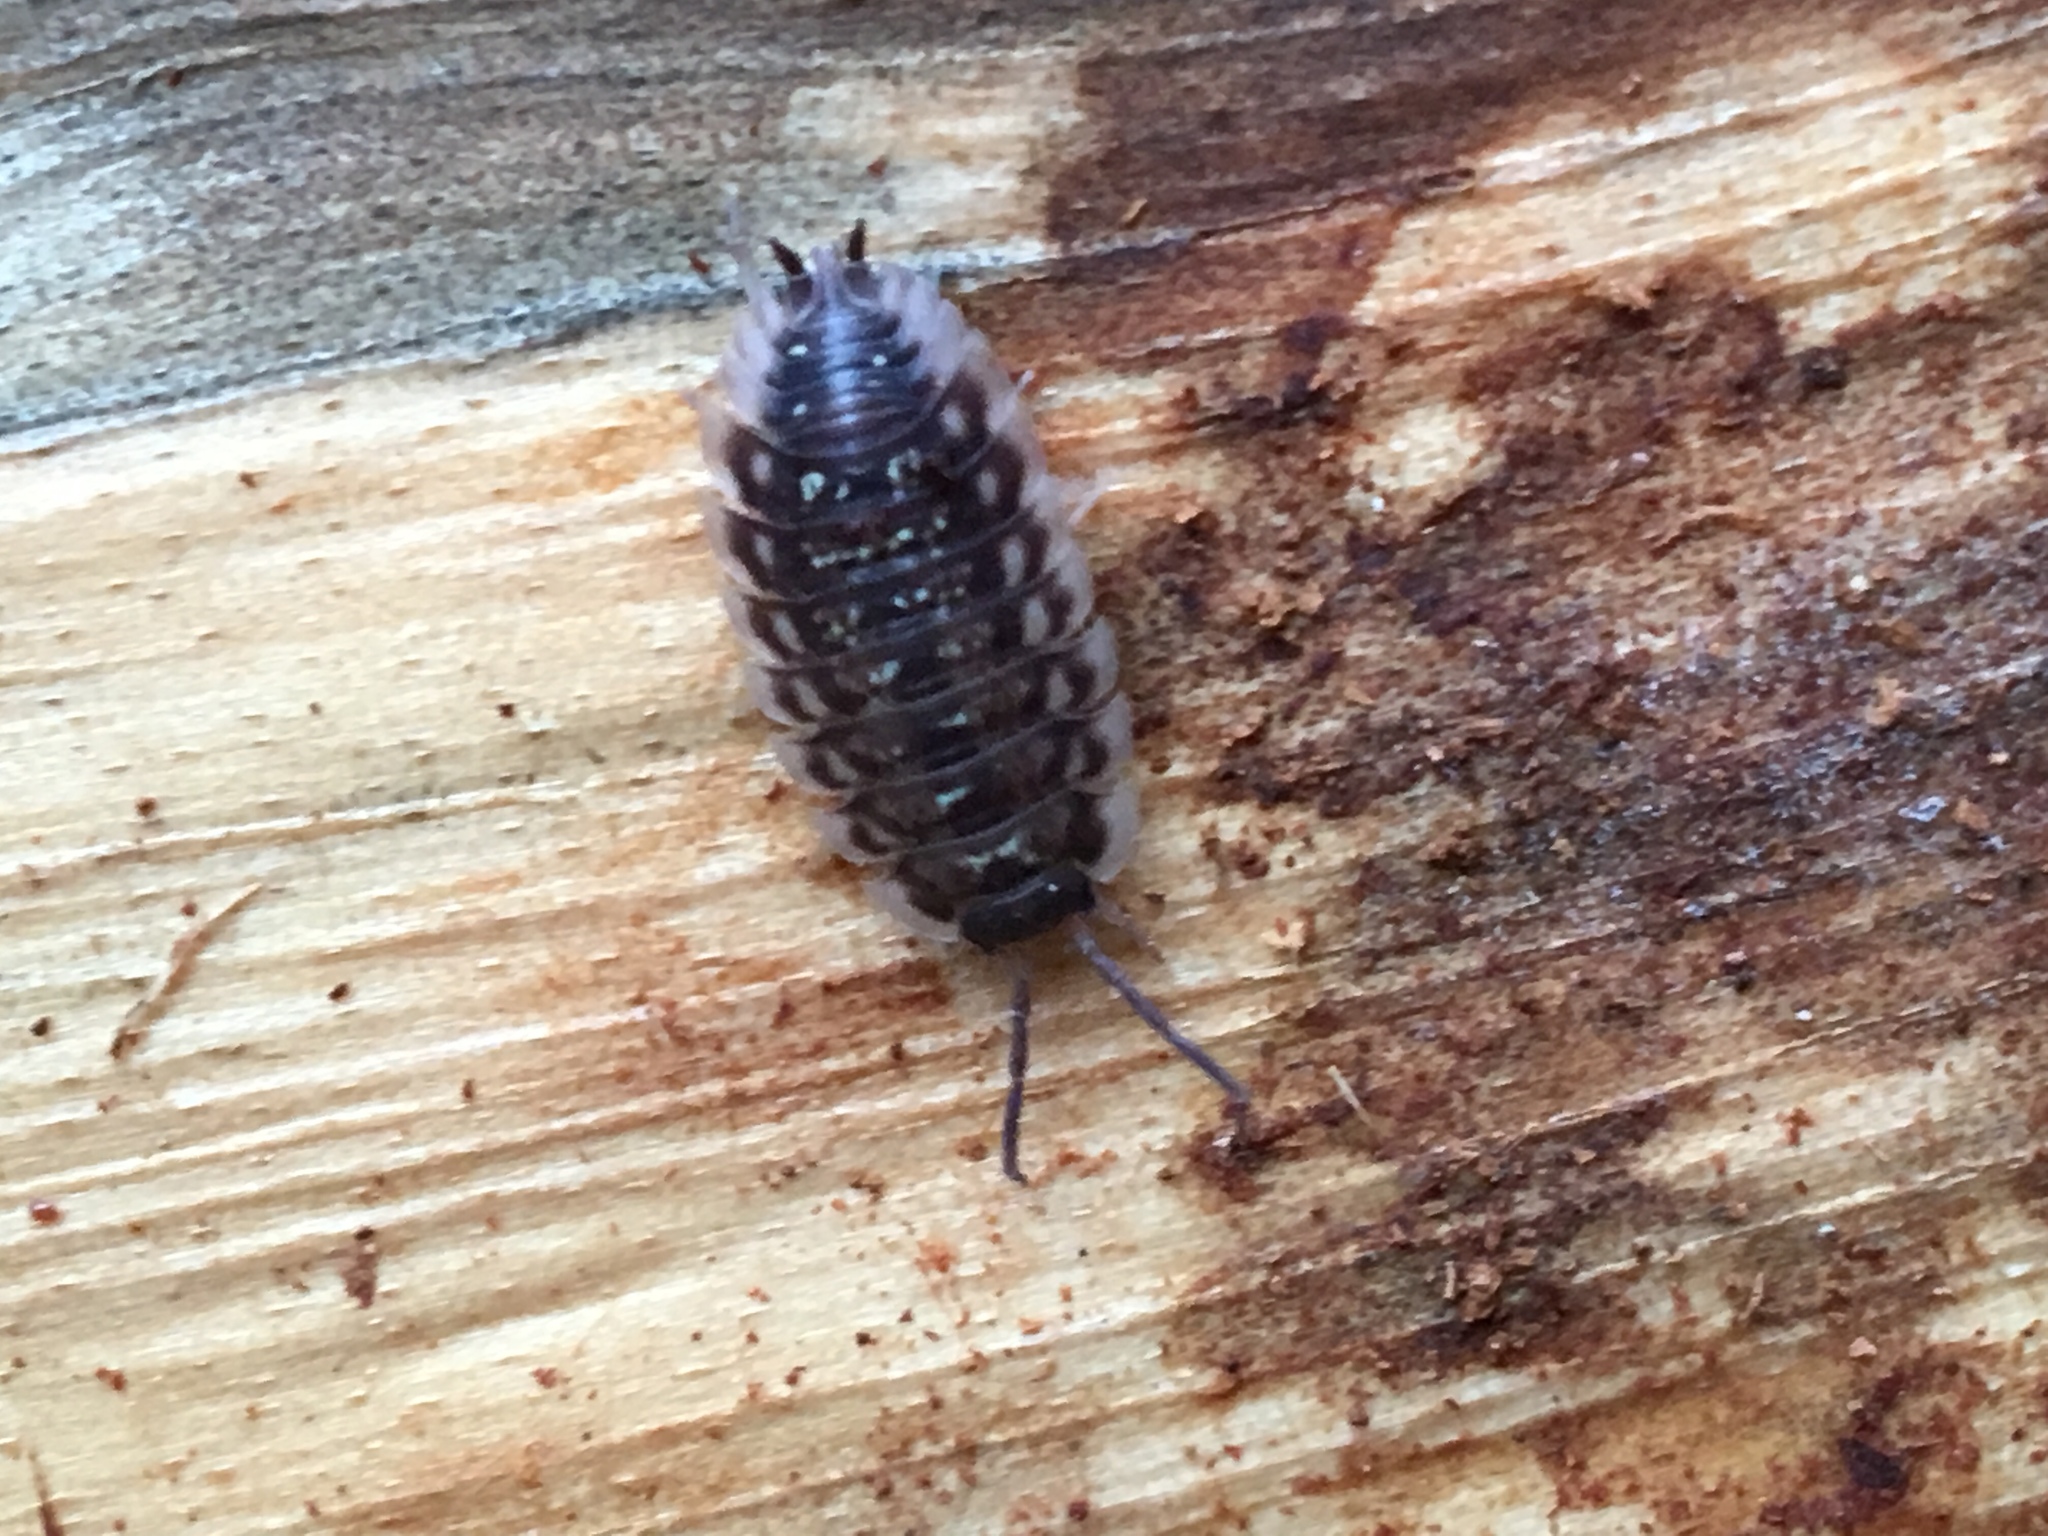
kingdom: Animalia
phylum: Arthropoda
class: Malacostraca
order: Isopoda
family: Oniscidae
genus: Oniscus
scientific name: Oniscus asellus
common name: Common shiny woodlouse
